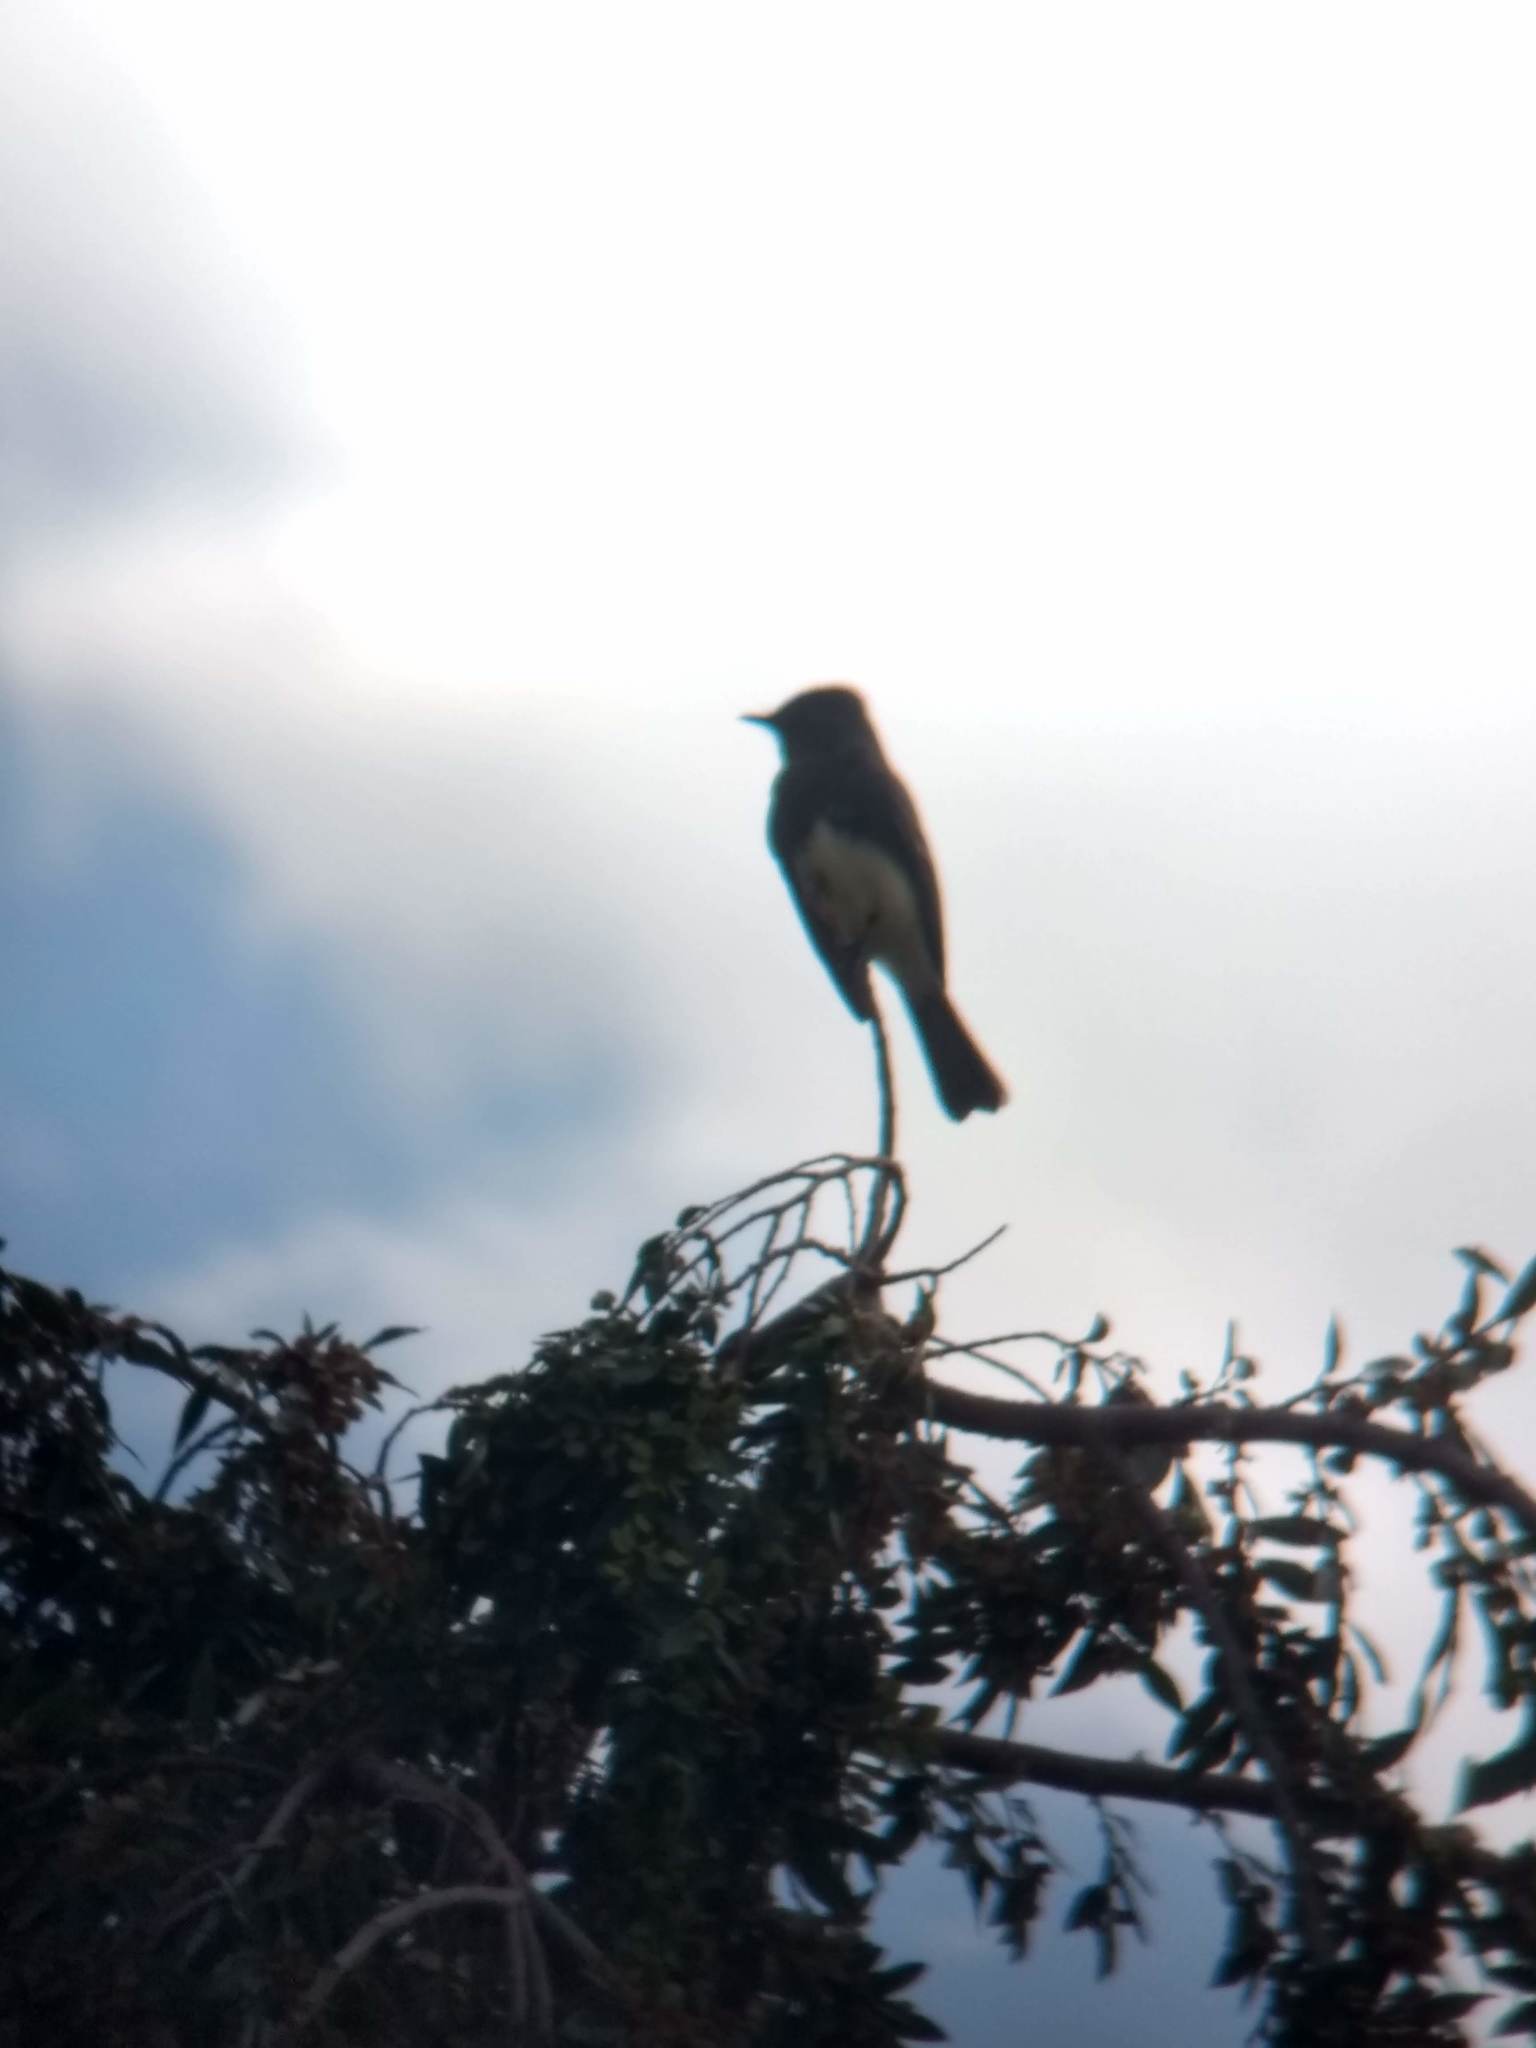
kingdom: Animalia
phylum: Chordata
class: Aves
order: Passeriformes
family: Tyrannidae
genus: Sayornis
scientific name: Sayornis nigricans
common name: Black phoebe
